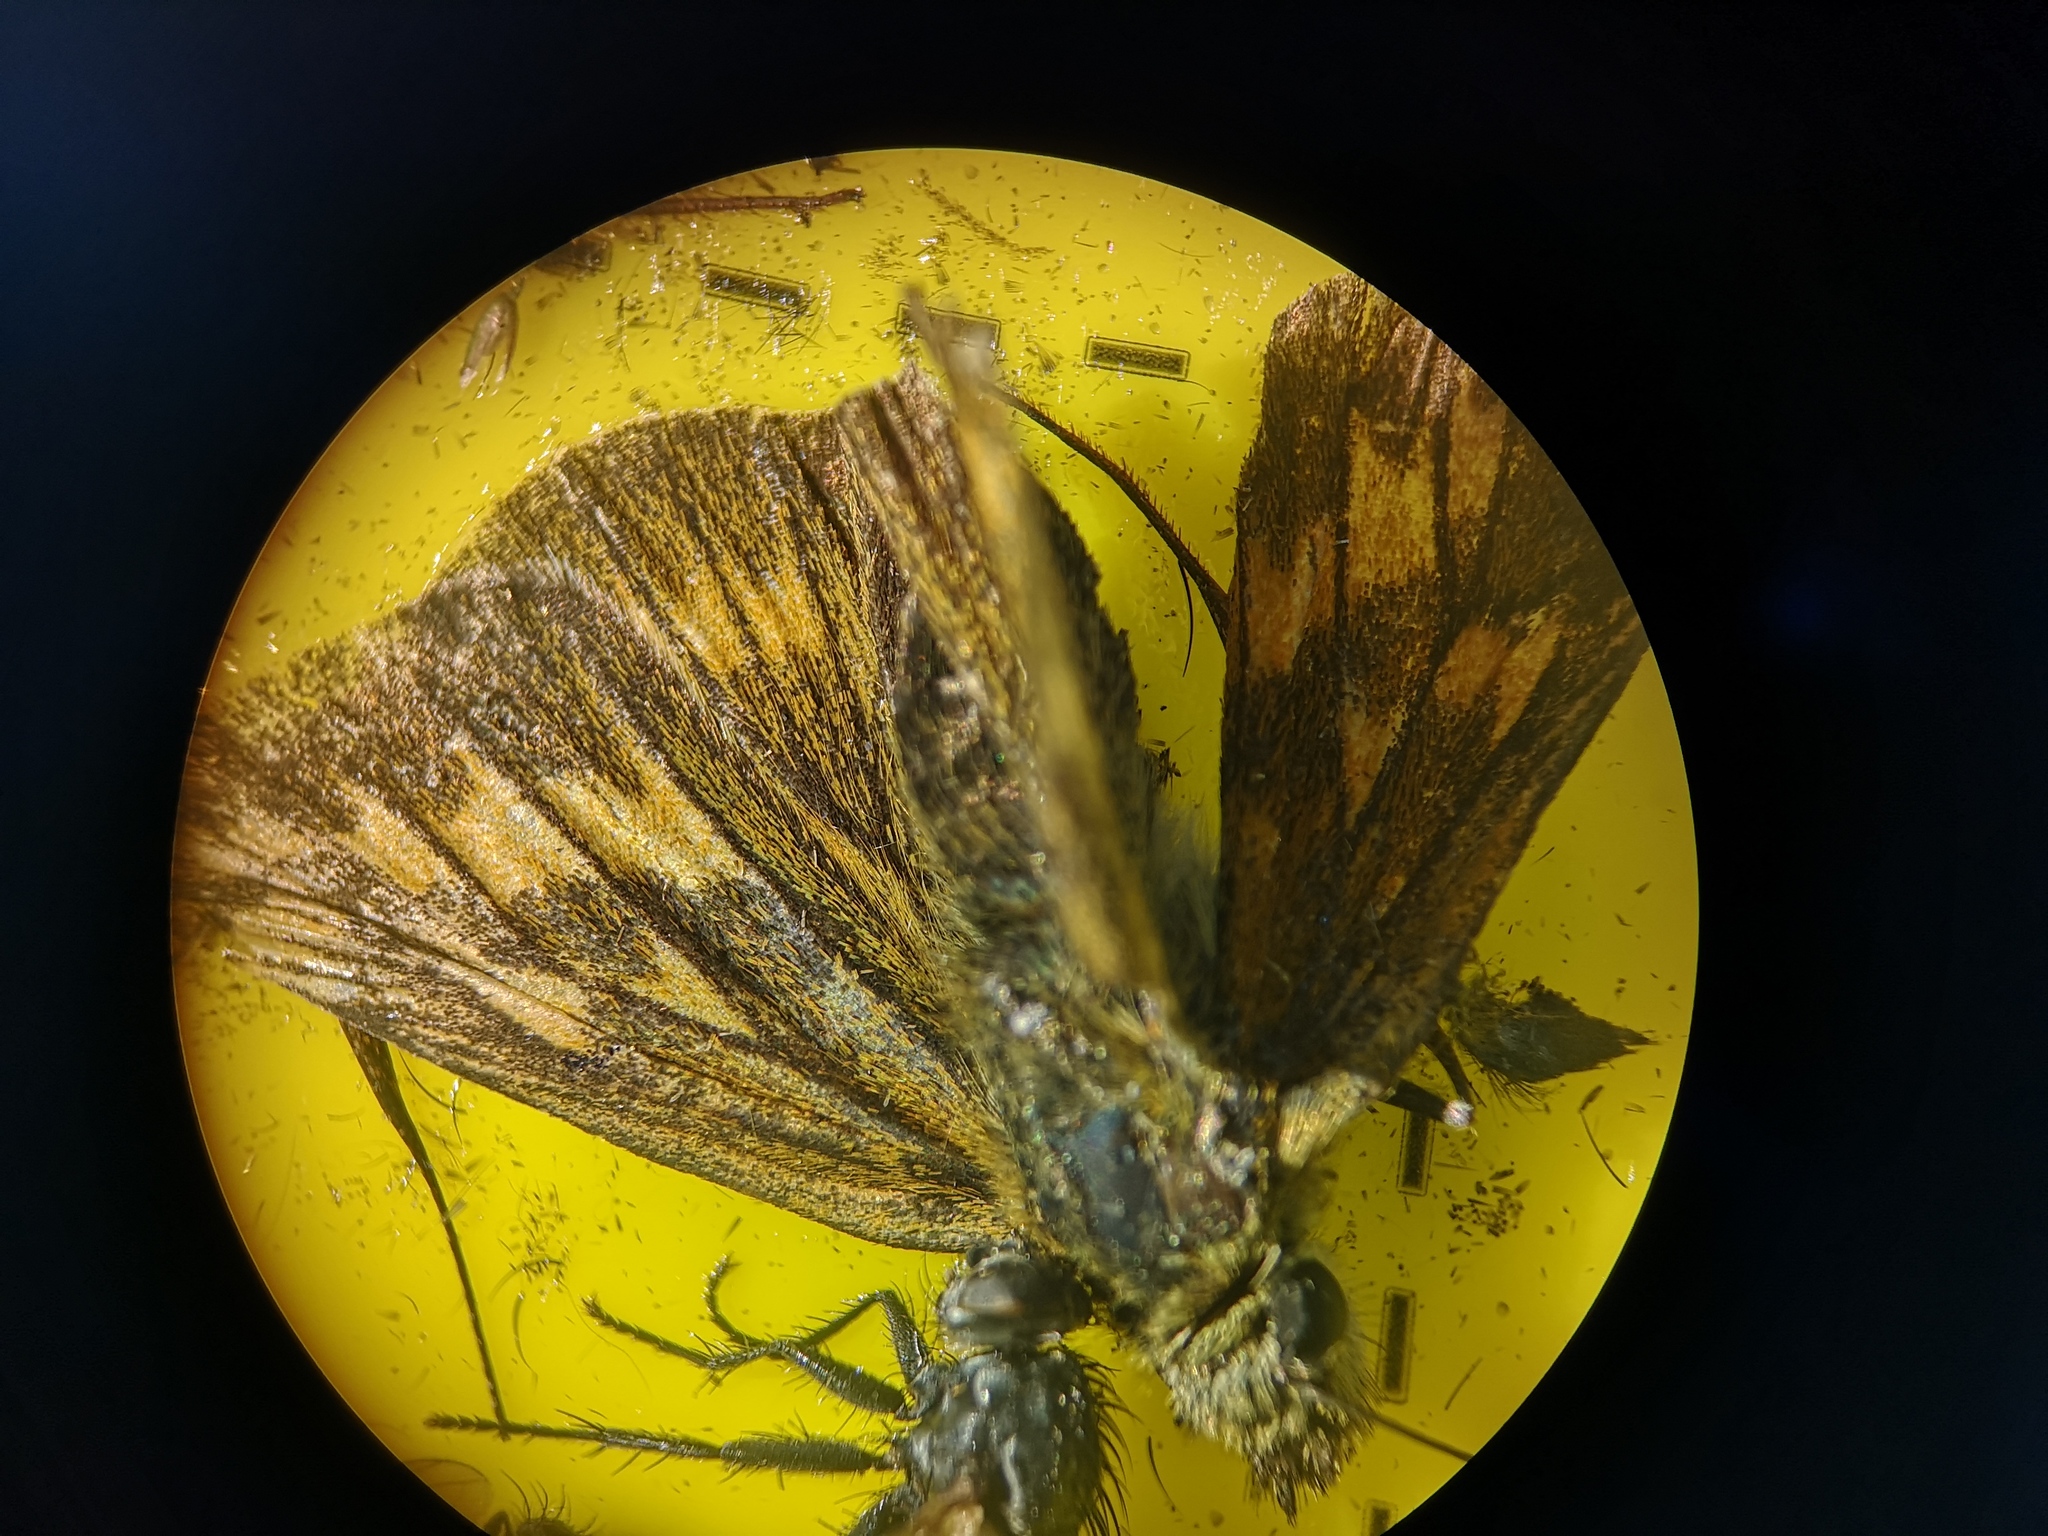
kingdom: Animalia
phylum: Arthropoda
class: Insecta
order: Lepidoptera
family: Hesperiidae
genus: Ochlodes
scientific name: Ochlodes venata
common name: Large skipper
